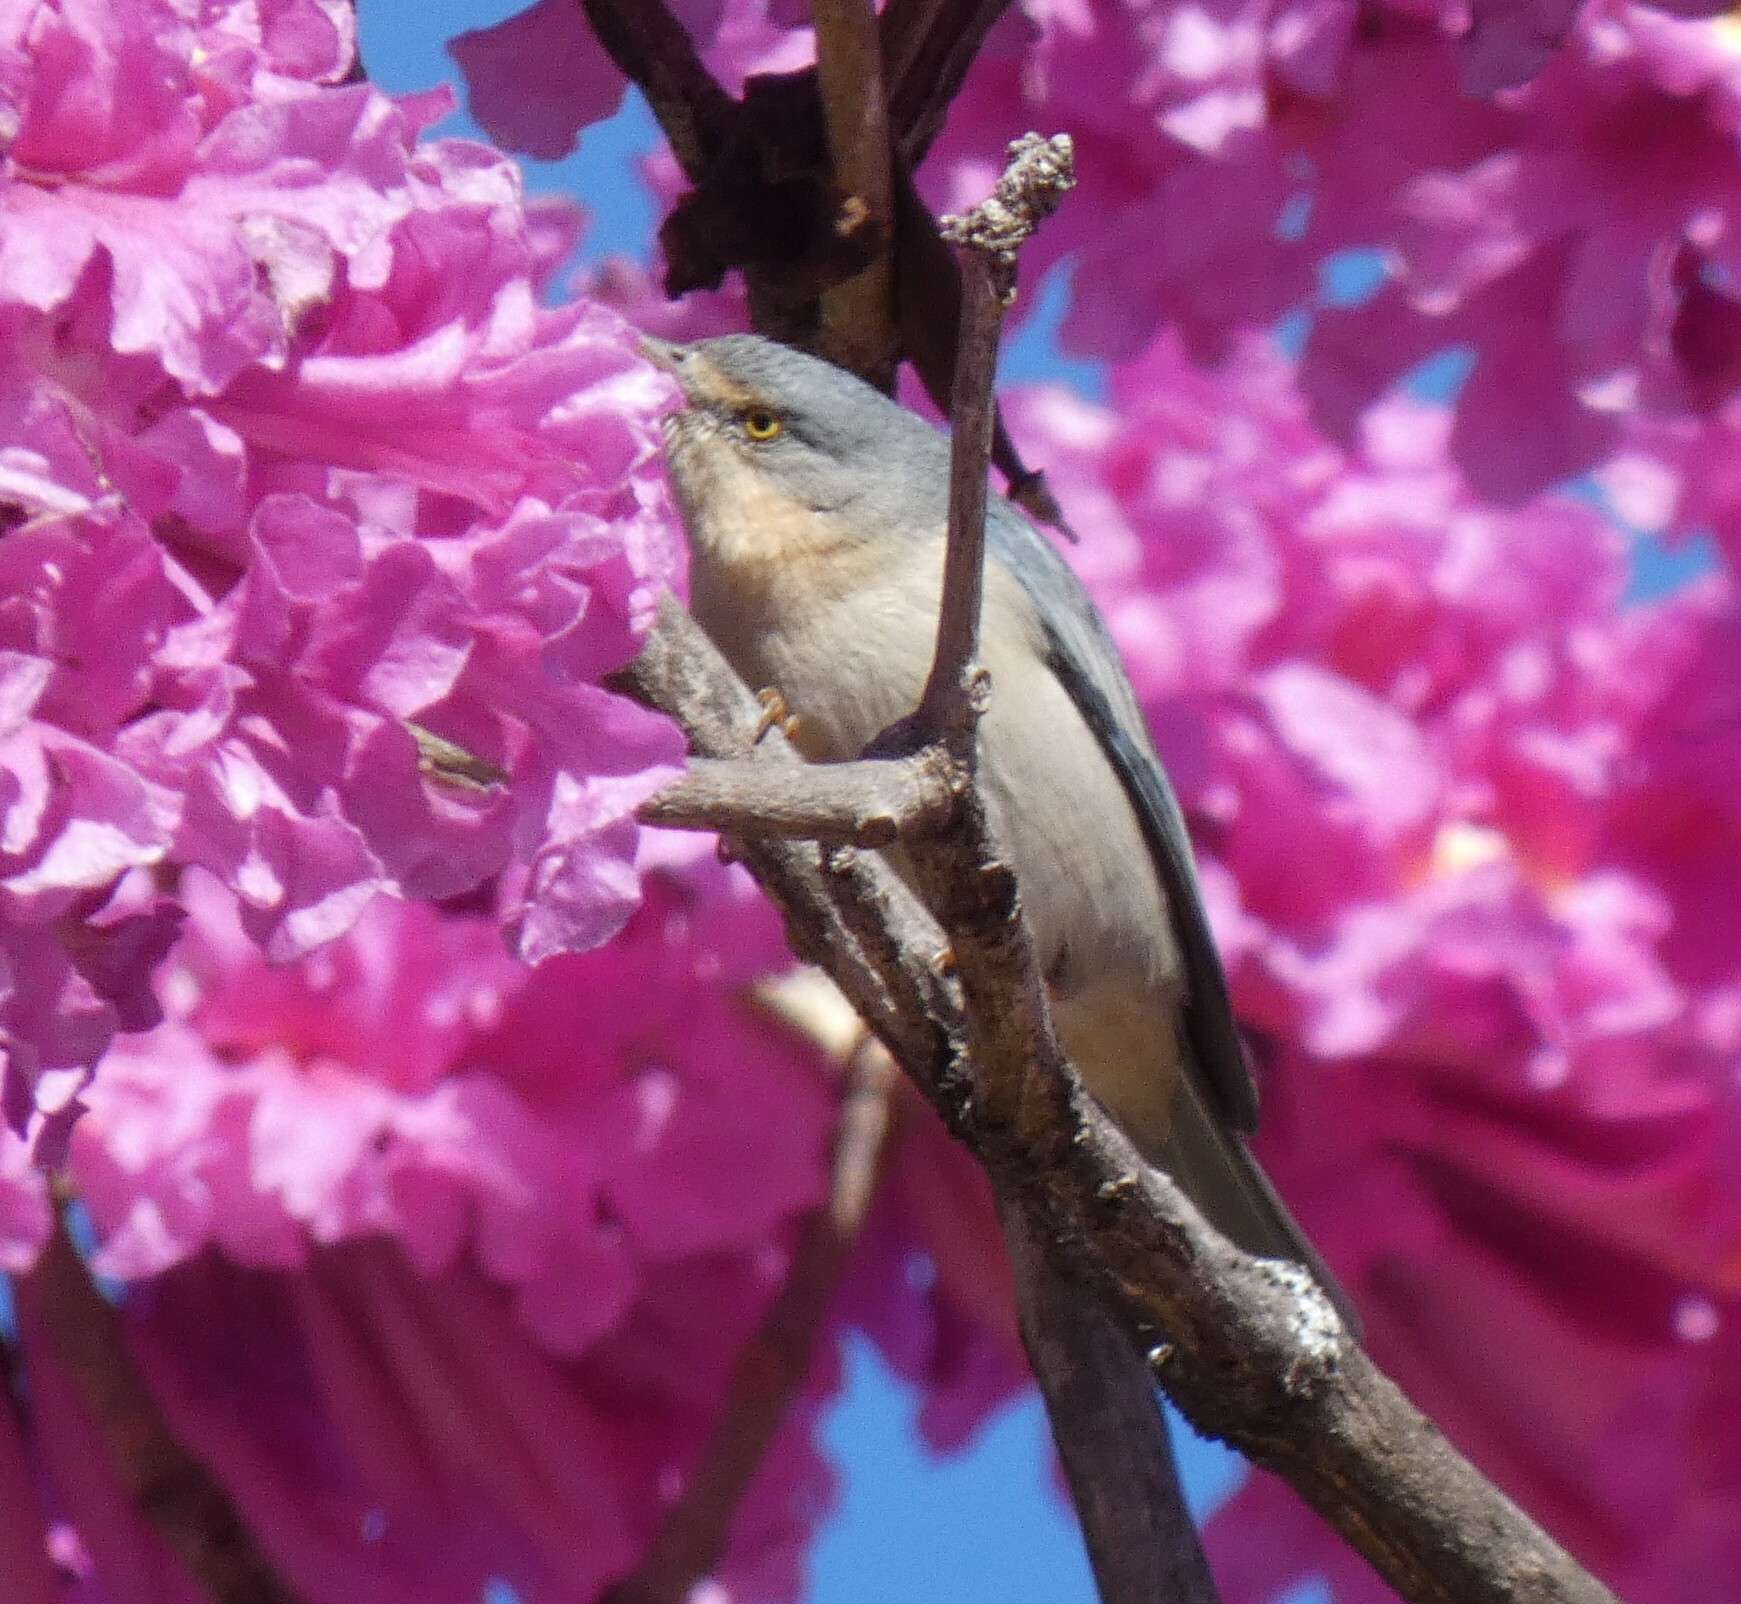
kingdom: Animalia
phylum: Chordata
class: Aves
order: Passeriformes
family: Thraupidae
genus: Nemosia
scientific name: Nemosia pileata
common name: Hooded tanager
